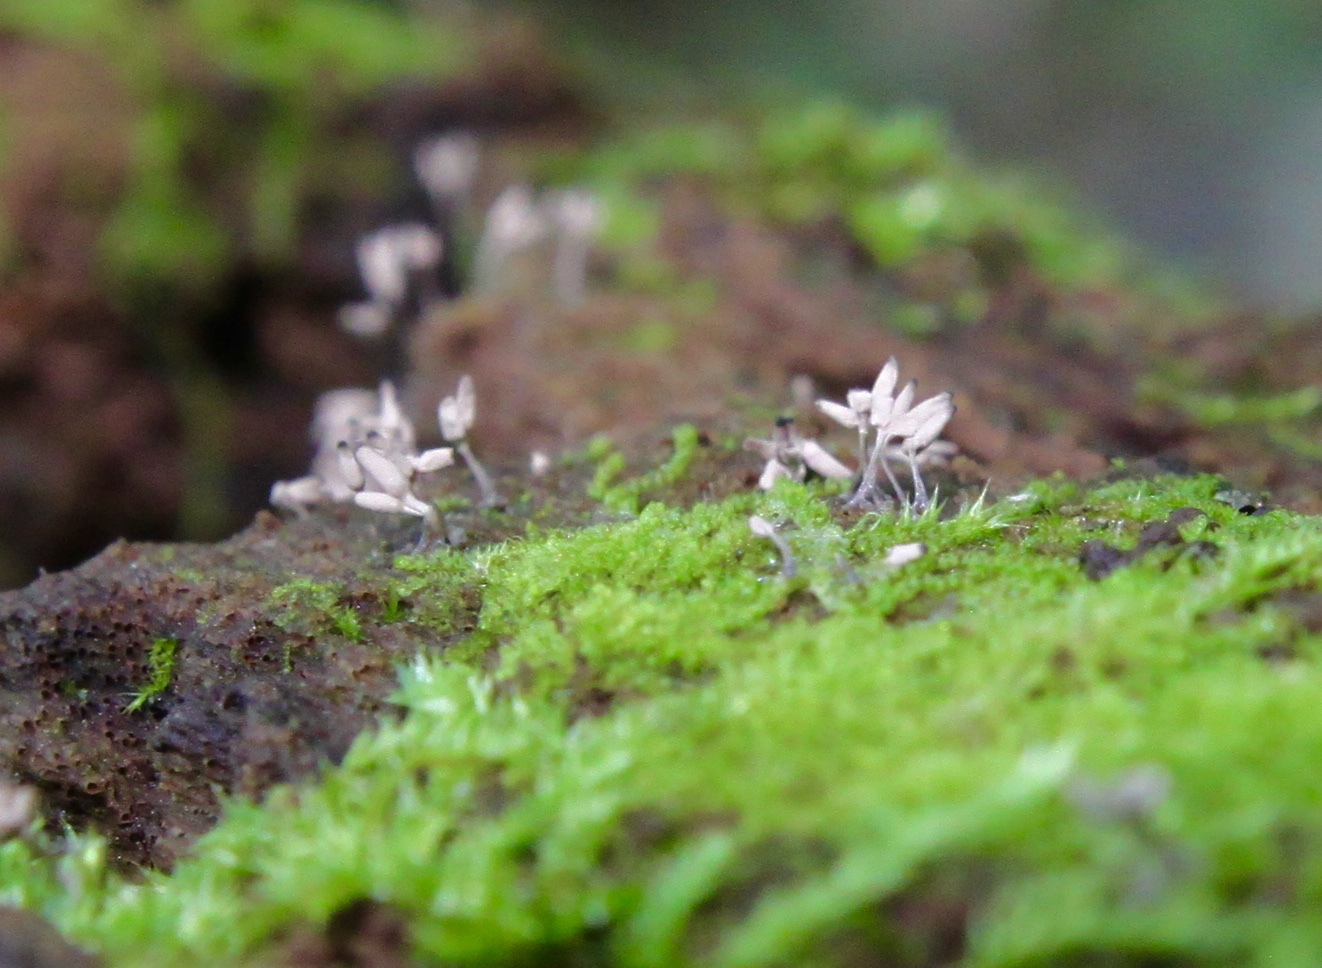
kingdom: Protozoa
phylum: Mycetozoa
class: Myxomycetes
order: Trichiales
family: Arcyriaceae
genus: Arcyria
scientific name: Arcyria cinerea
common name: White carnival candy slime mold
